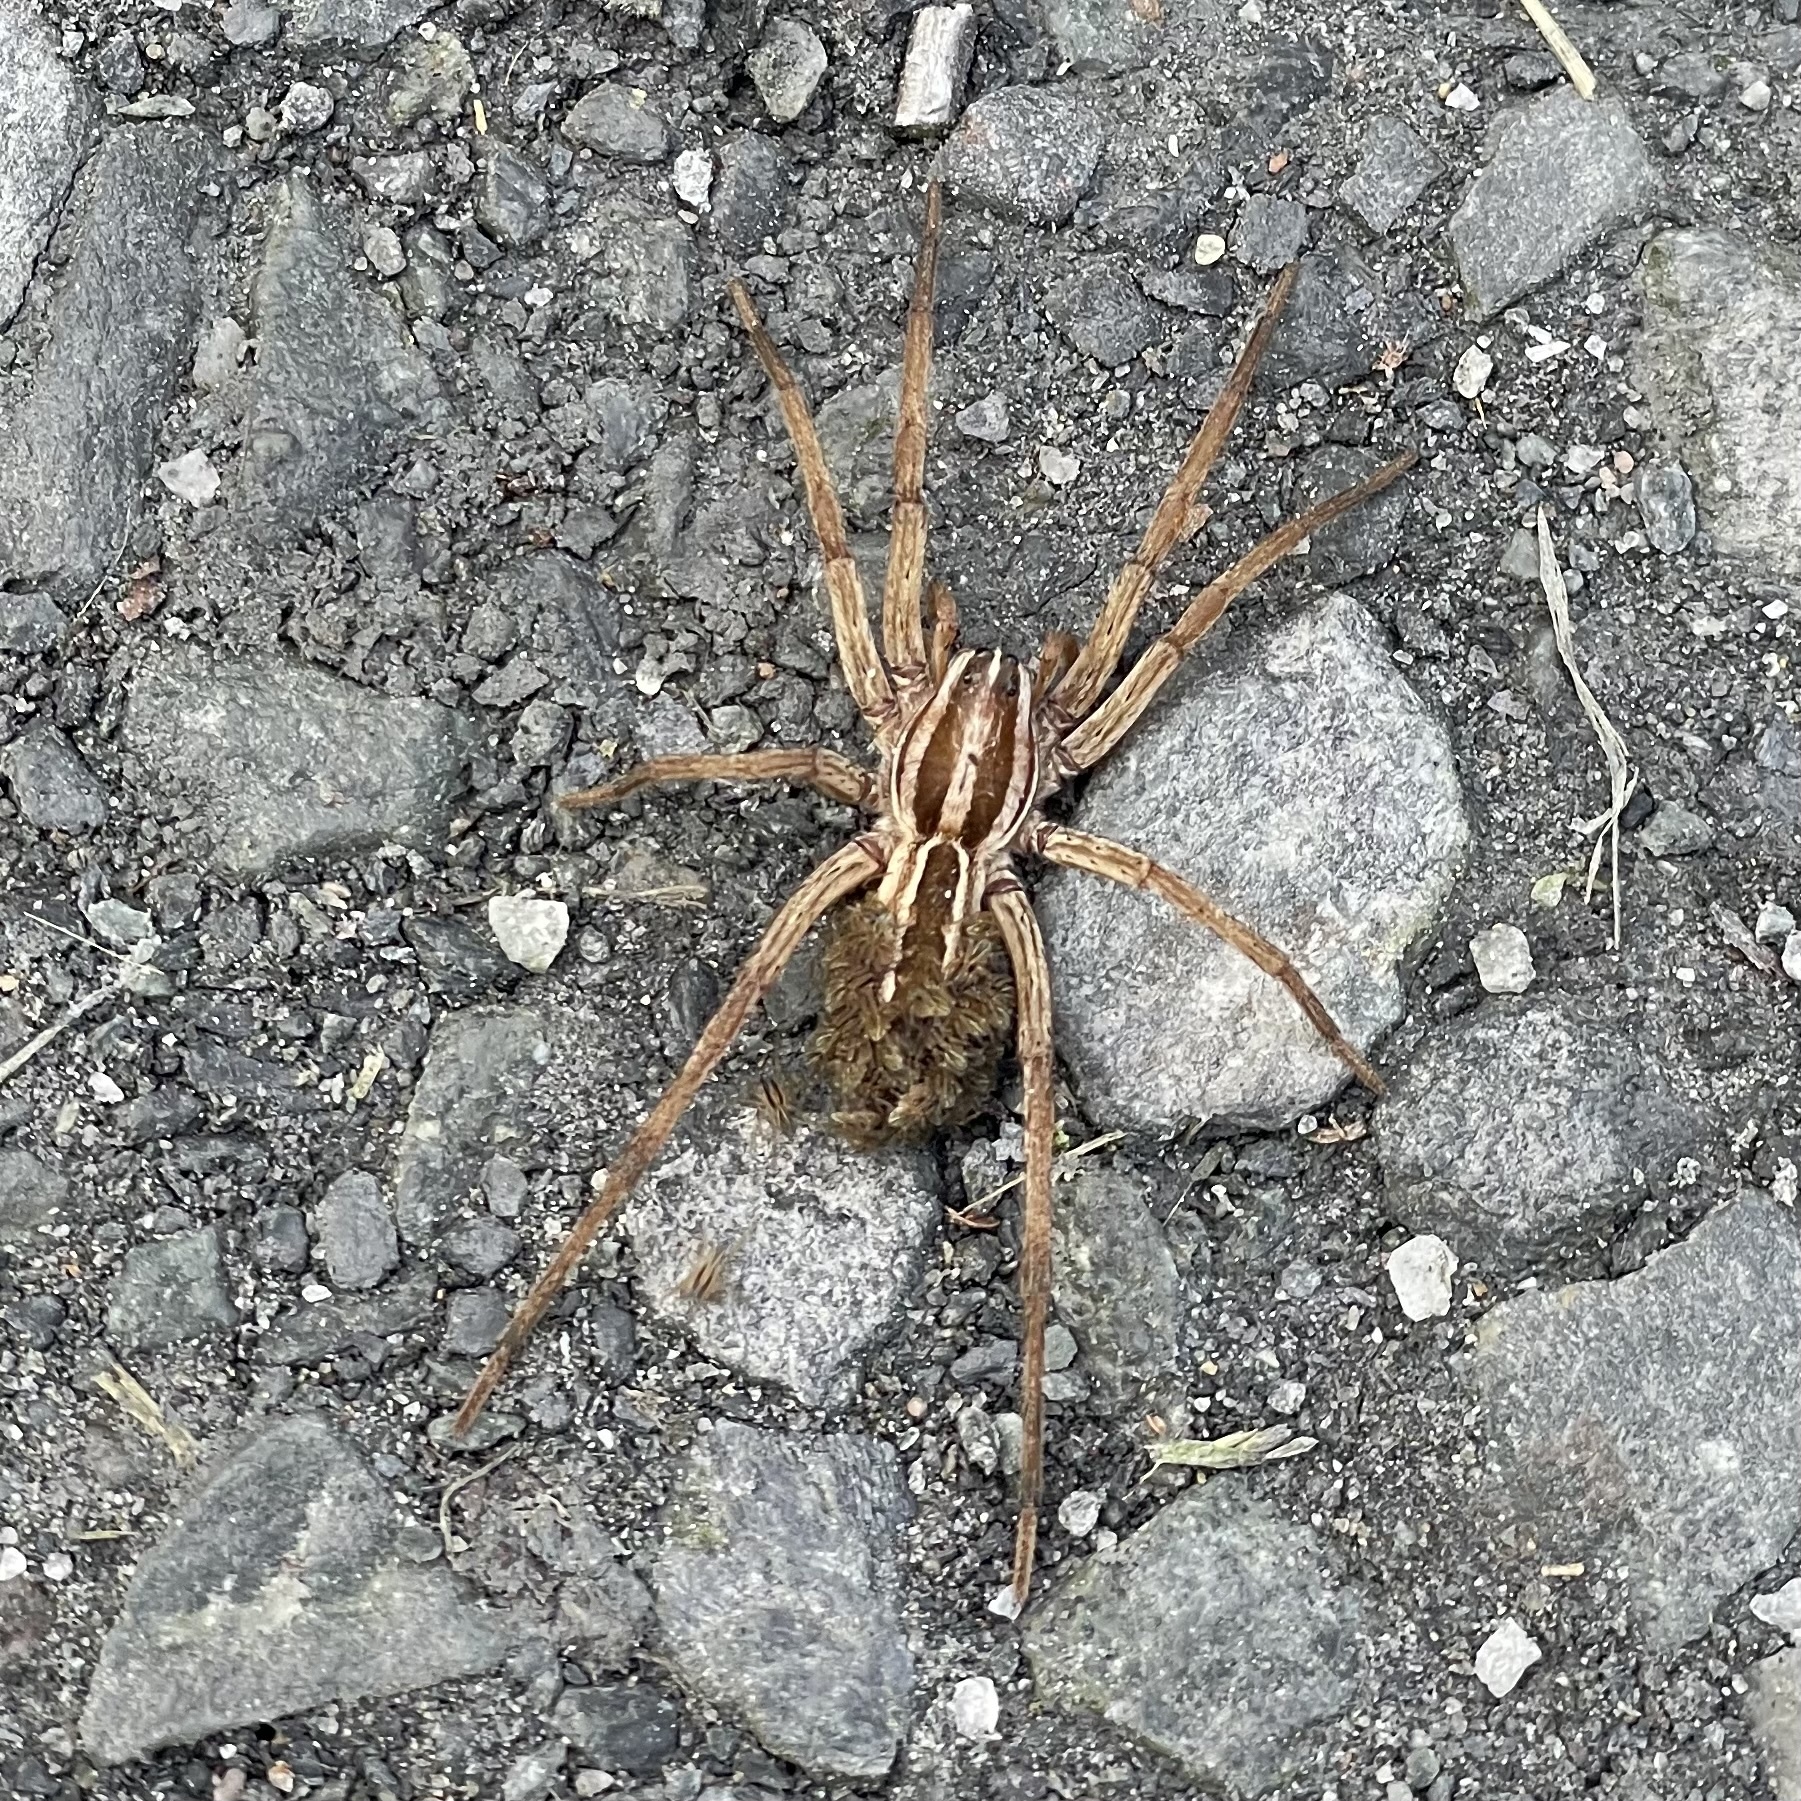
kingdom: Animalia
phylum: Arthropoda
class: Arachnida
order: Araneae
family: Lycosidae
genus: Rabidosa
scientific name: Rabidosa rabida
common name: Rabid wolf spider
